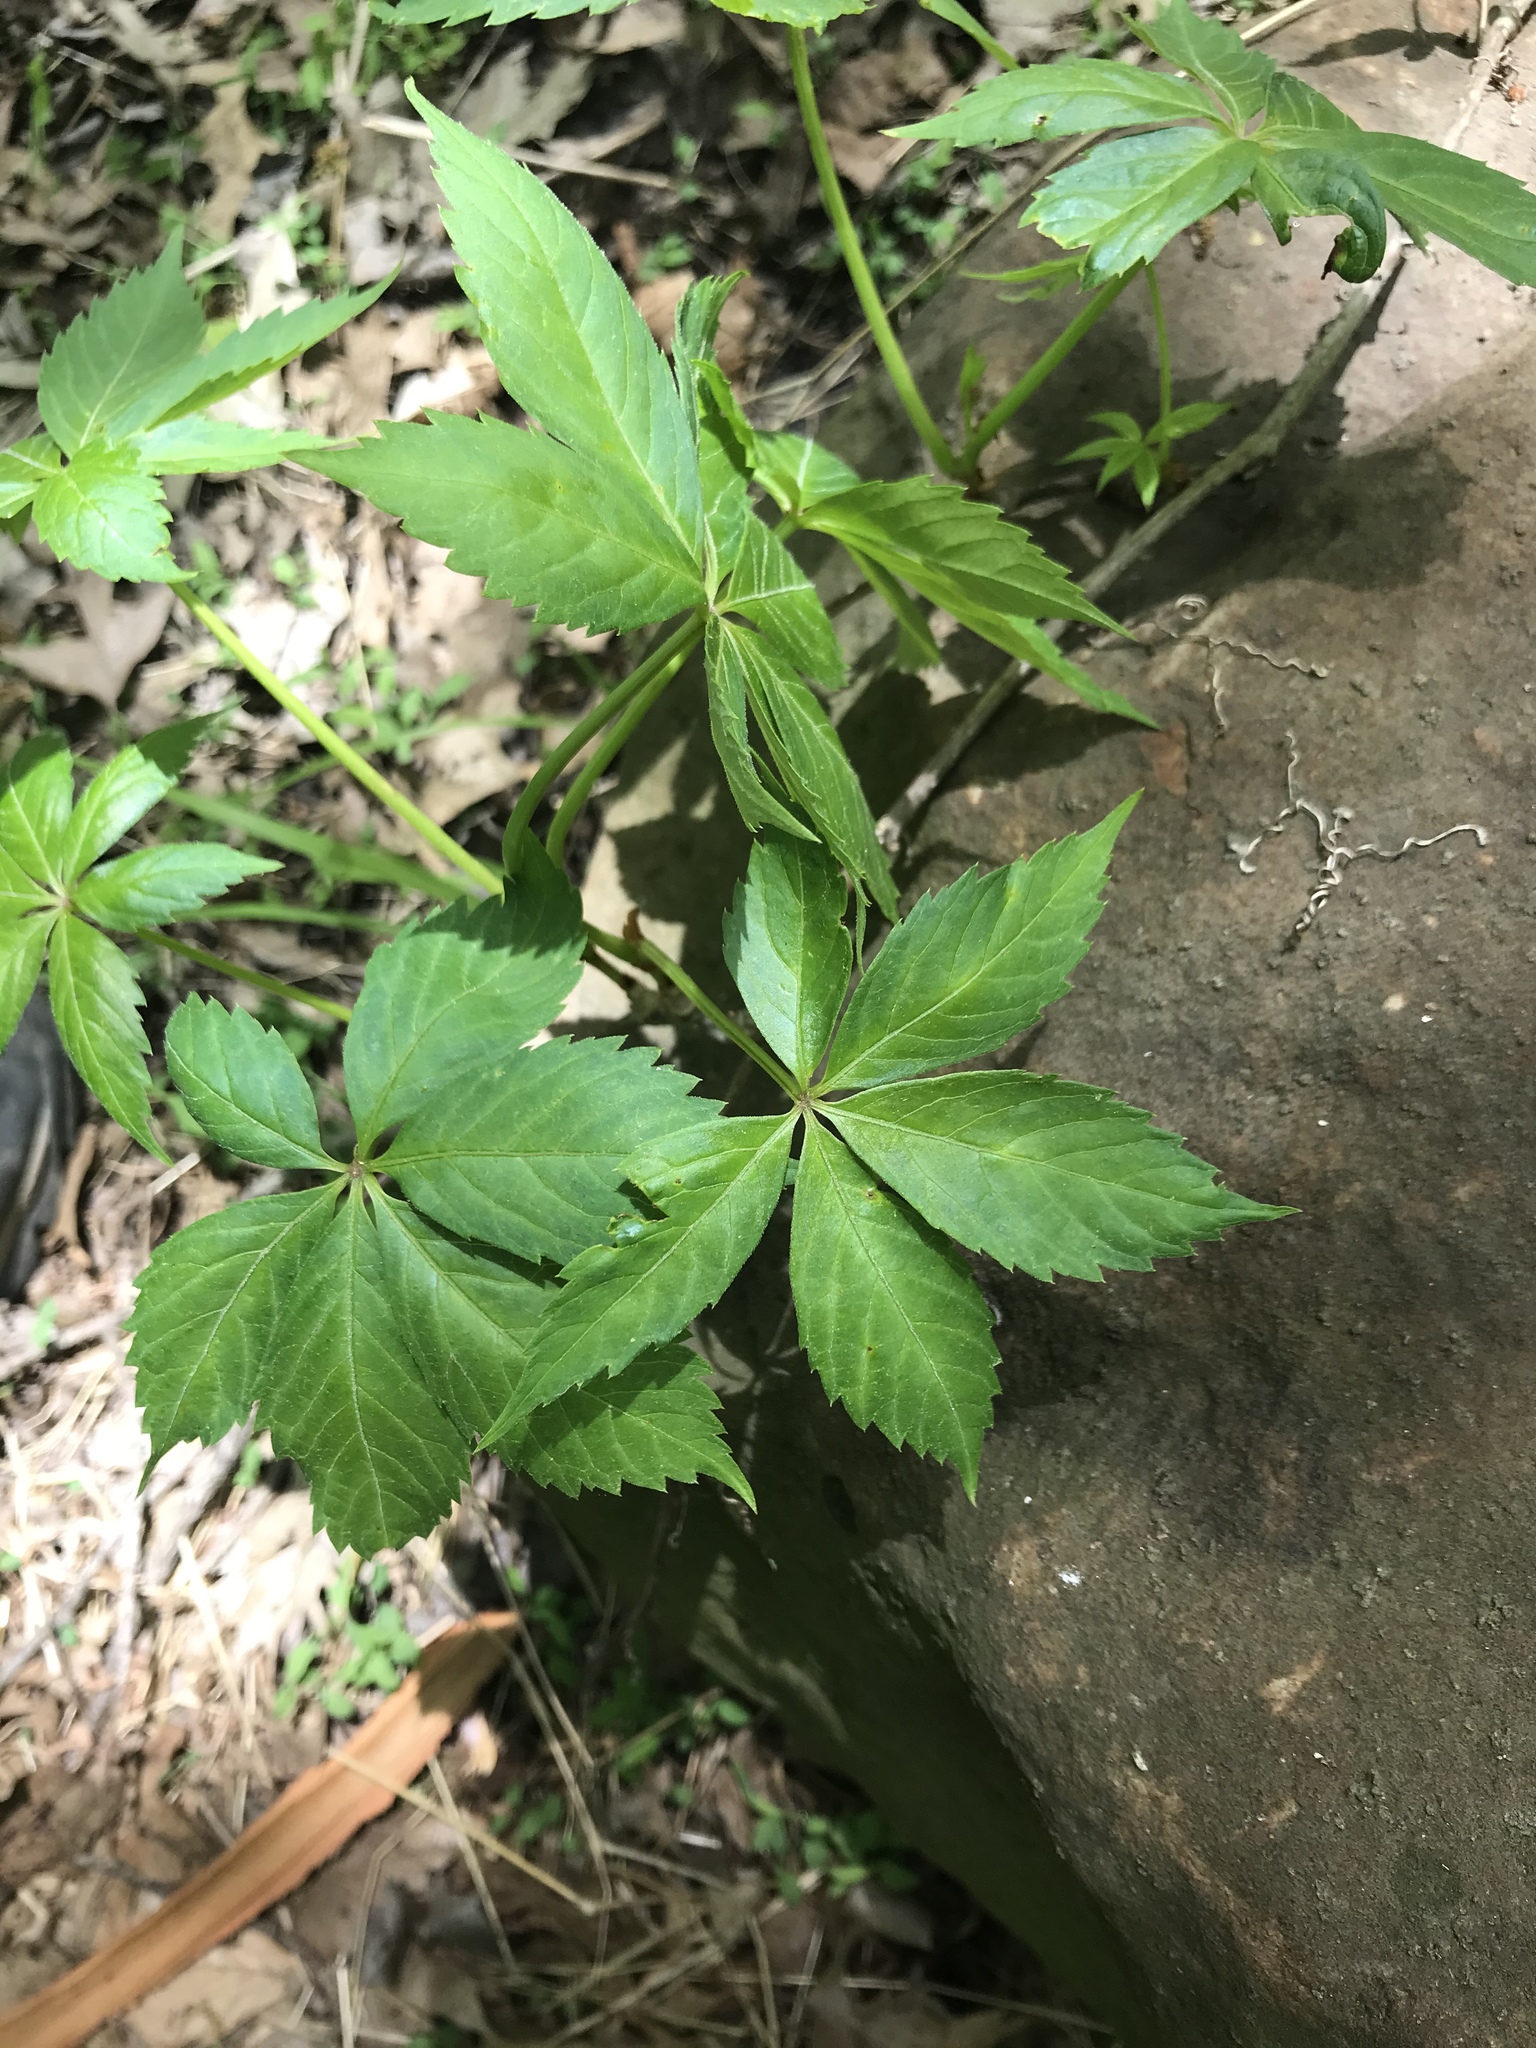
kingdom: Plantae
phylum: Tracheophyta
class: Magnoliopsida
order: Vitales
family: Vitaceae
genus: Parthenocissus
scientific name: Parthenocissus quinquefolia
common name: Virginia-creeper
